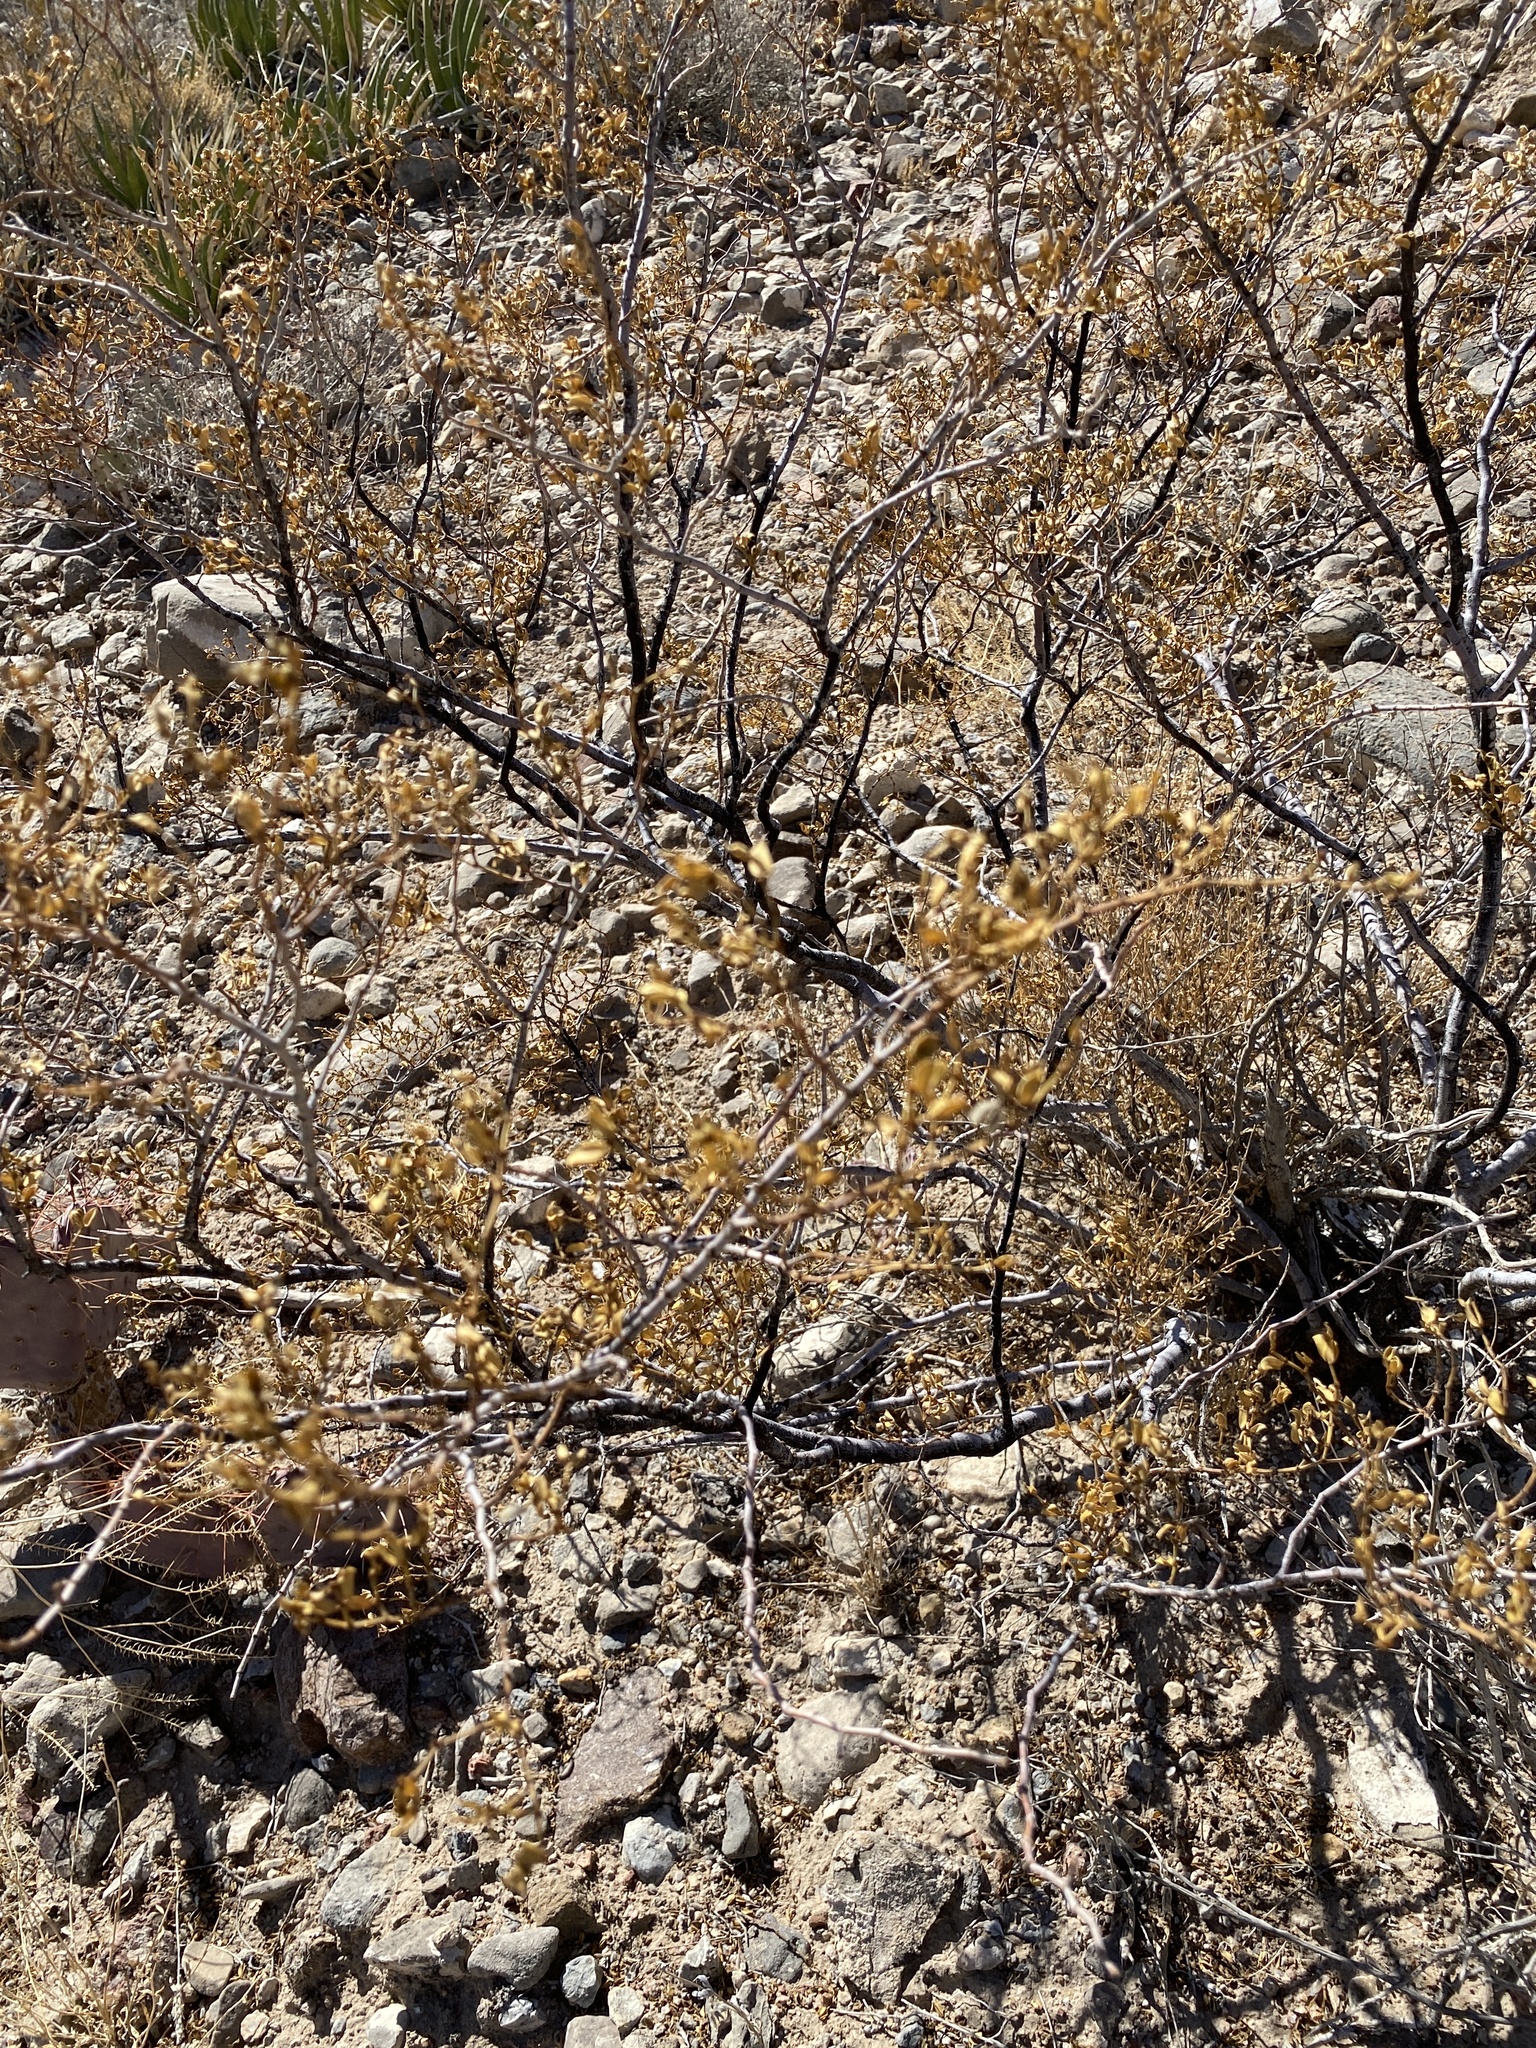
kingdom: Plantae
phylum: Tracheophyta
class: Magnoliopsida
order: Zygophyllales
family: Zygophyllaceae
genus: Larrea
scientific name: Larrea tridentata
